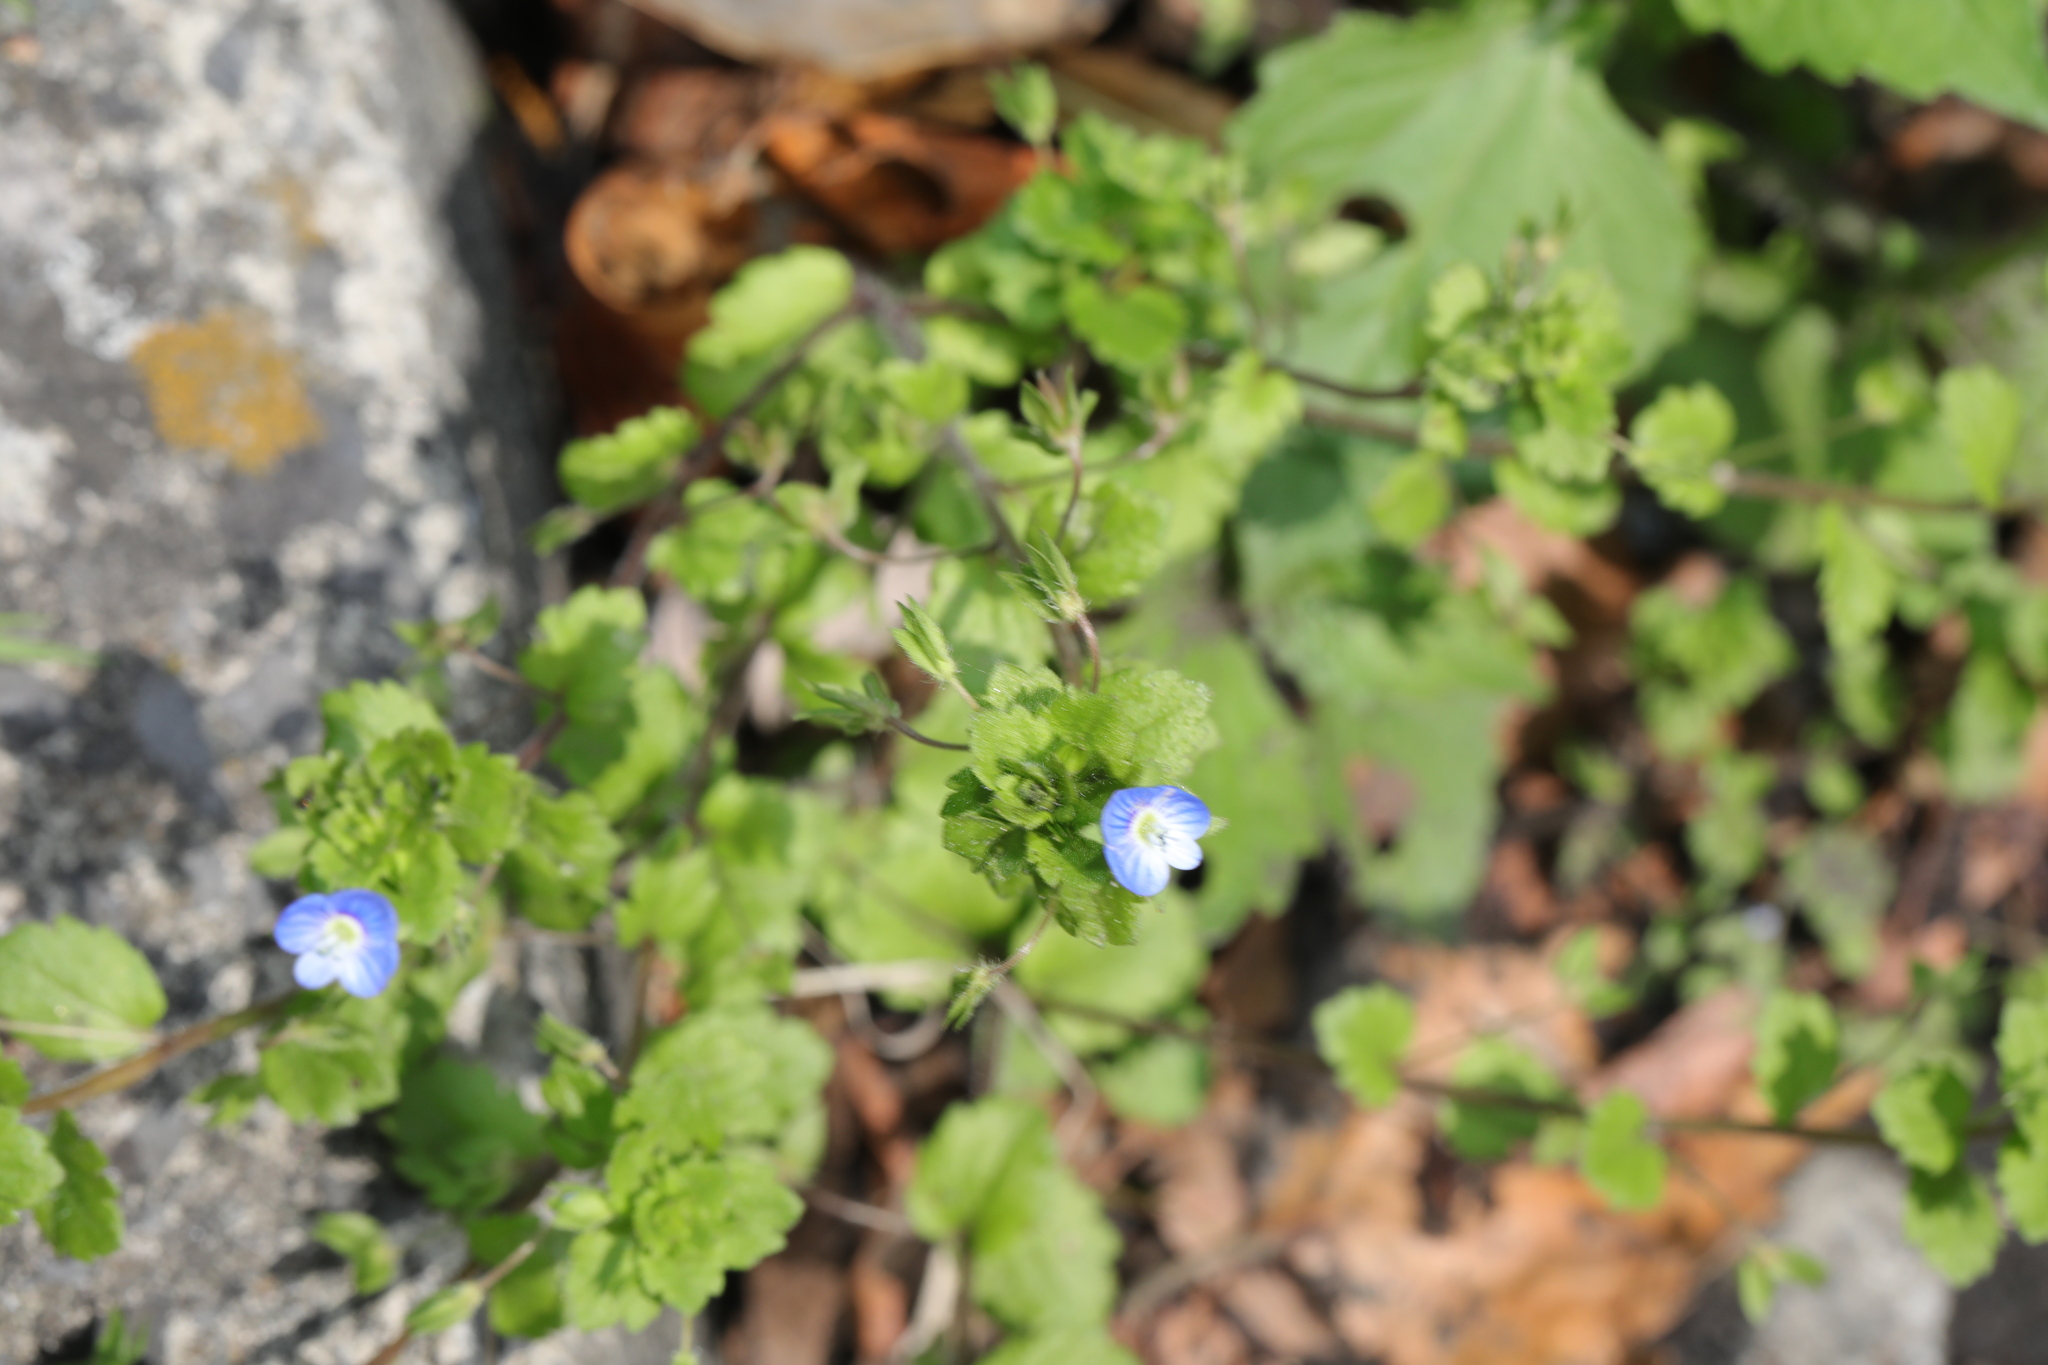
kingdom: Plantae
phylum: Tracheophyta
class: Magnoliopsida
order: Lamiales
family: Plantaginaceae
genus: Veronica
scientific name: Veronica persica
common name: Common field-speedwell
